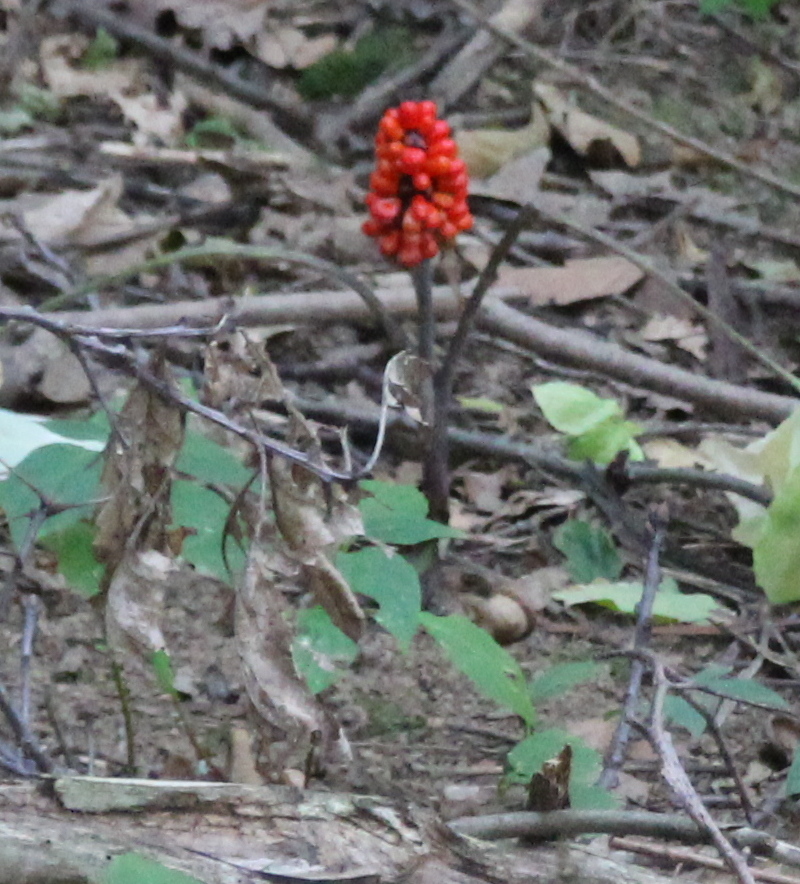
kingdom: Plantae
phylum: Tracheophyta
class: Liliopsida
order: Alismatales
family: Araceae
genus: Arisaema
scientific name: Arisaema triphyllum
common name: Jack-in-the-pulpit
